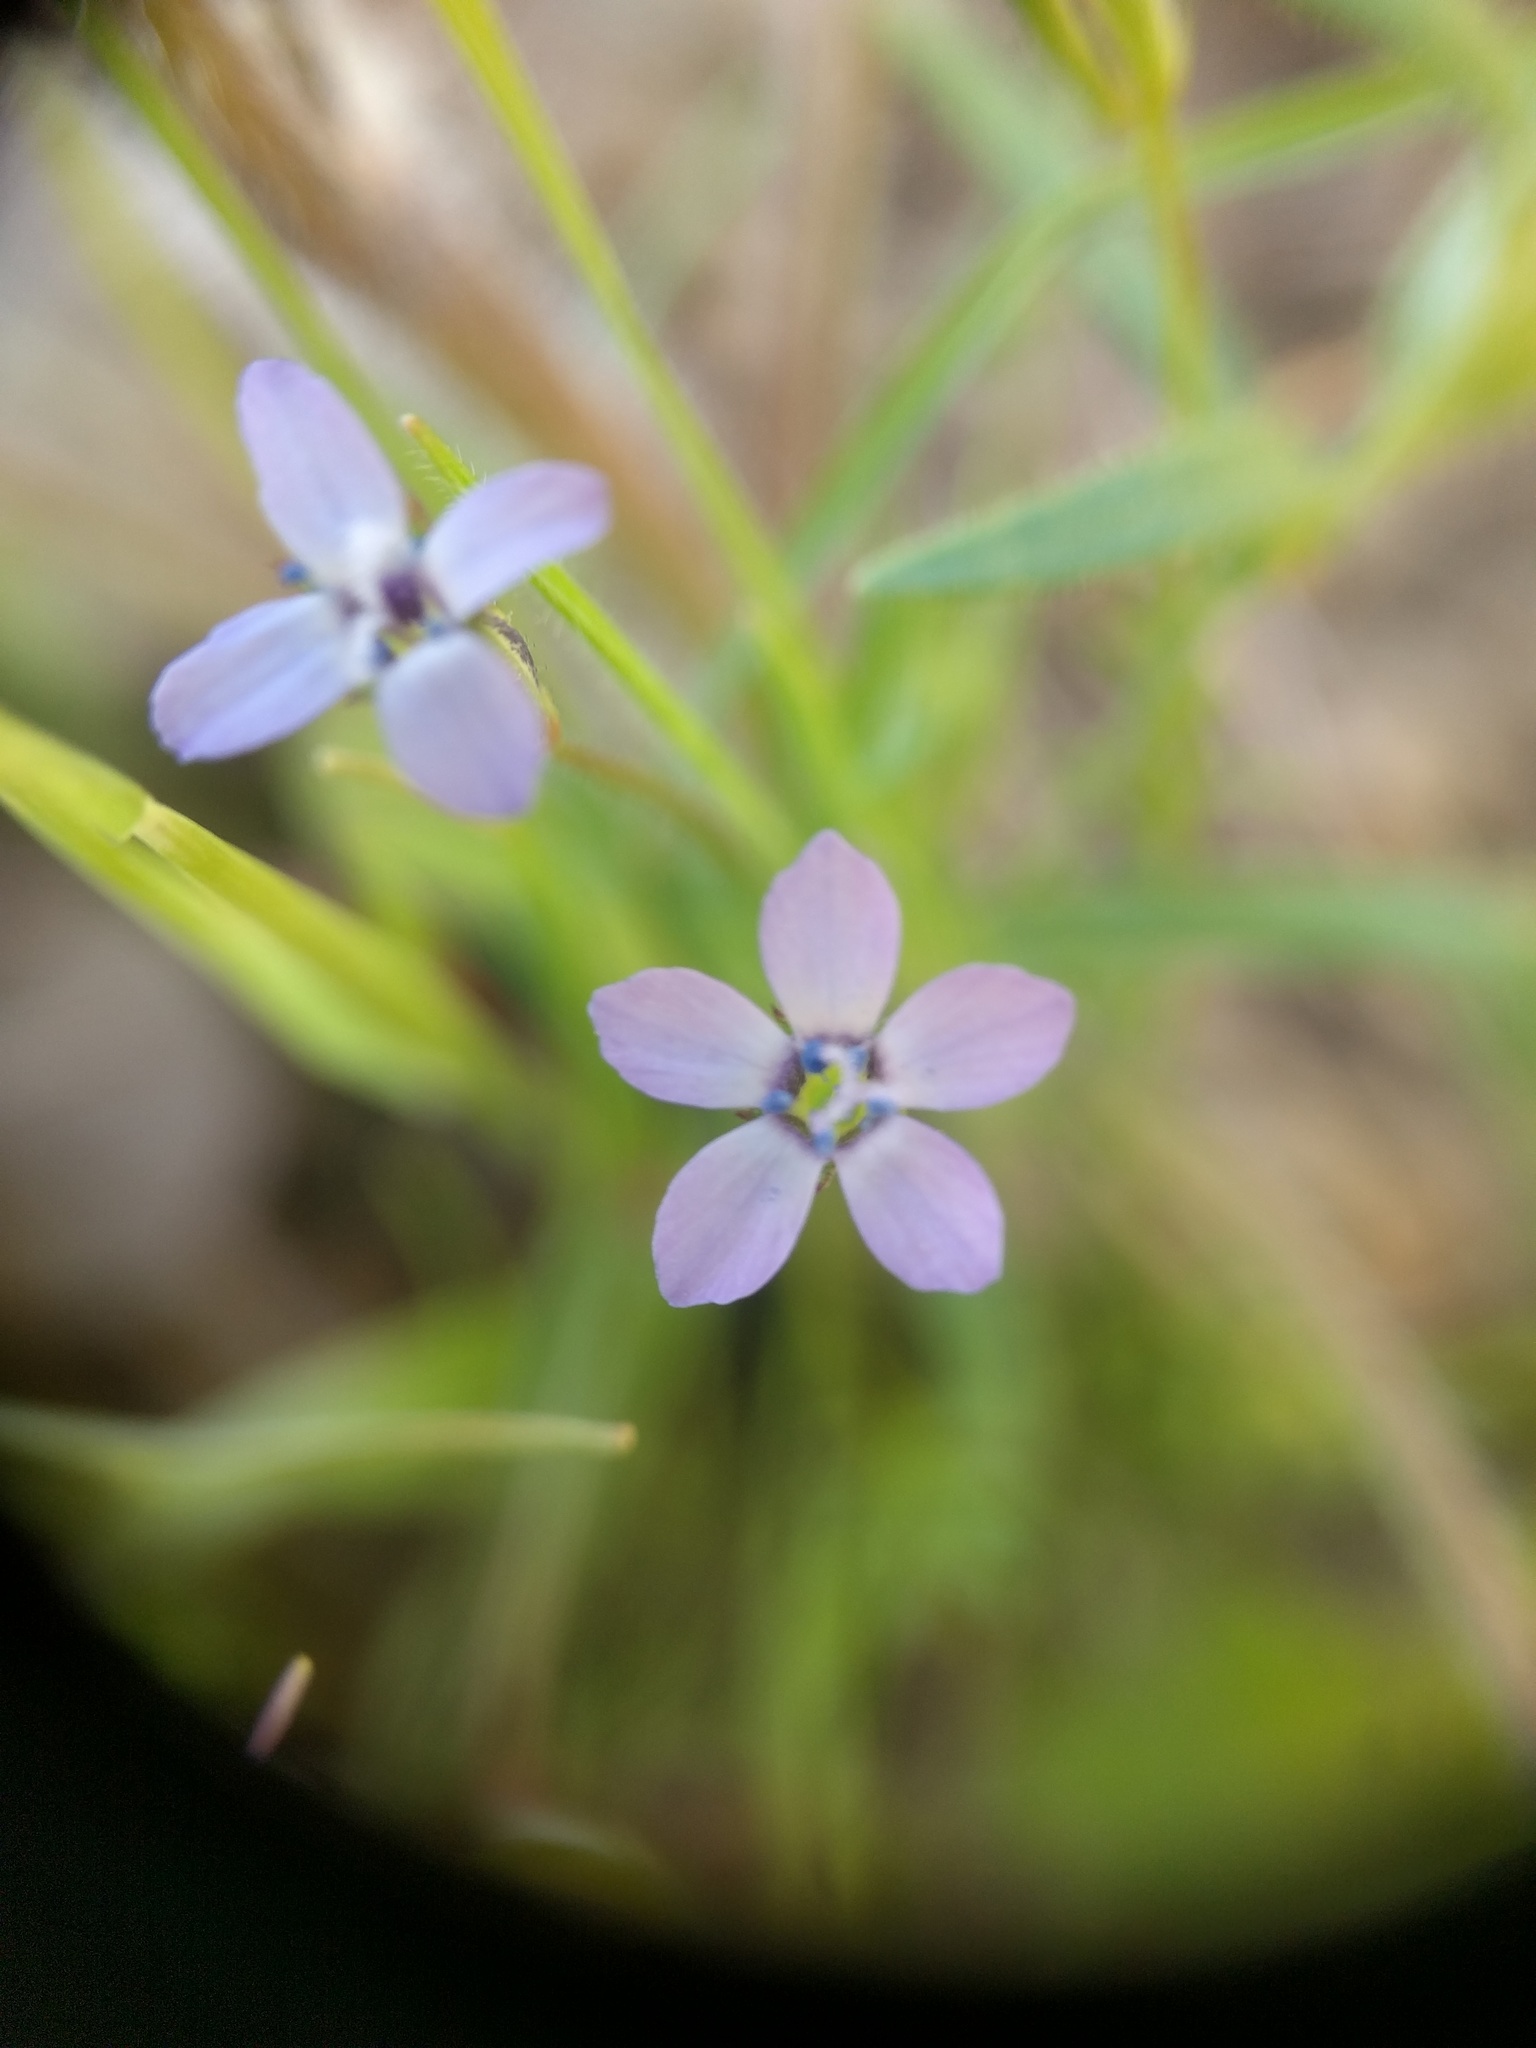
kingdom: Plantae
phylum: Tracheophyta
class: Magnoliopsida
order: Ericales
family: Polemoniaceae
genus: Gilia
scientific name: Gilia clivorum
